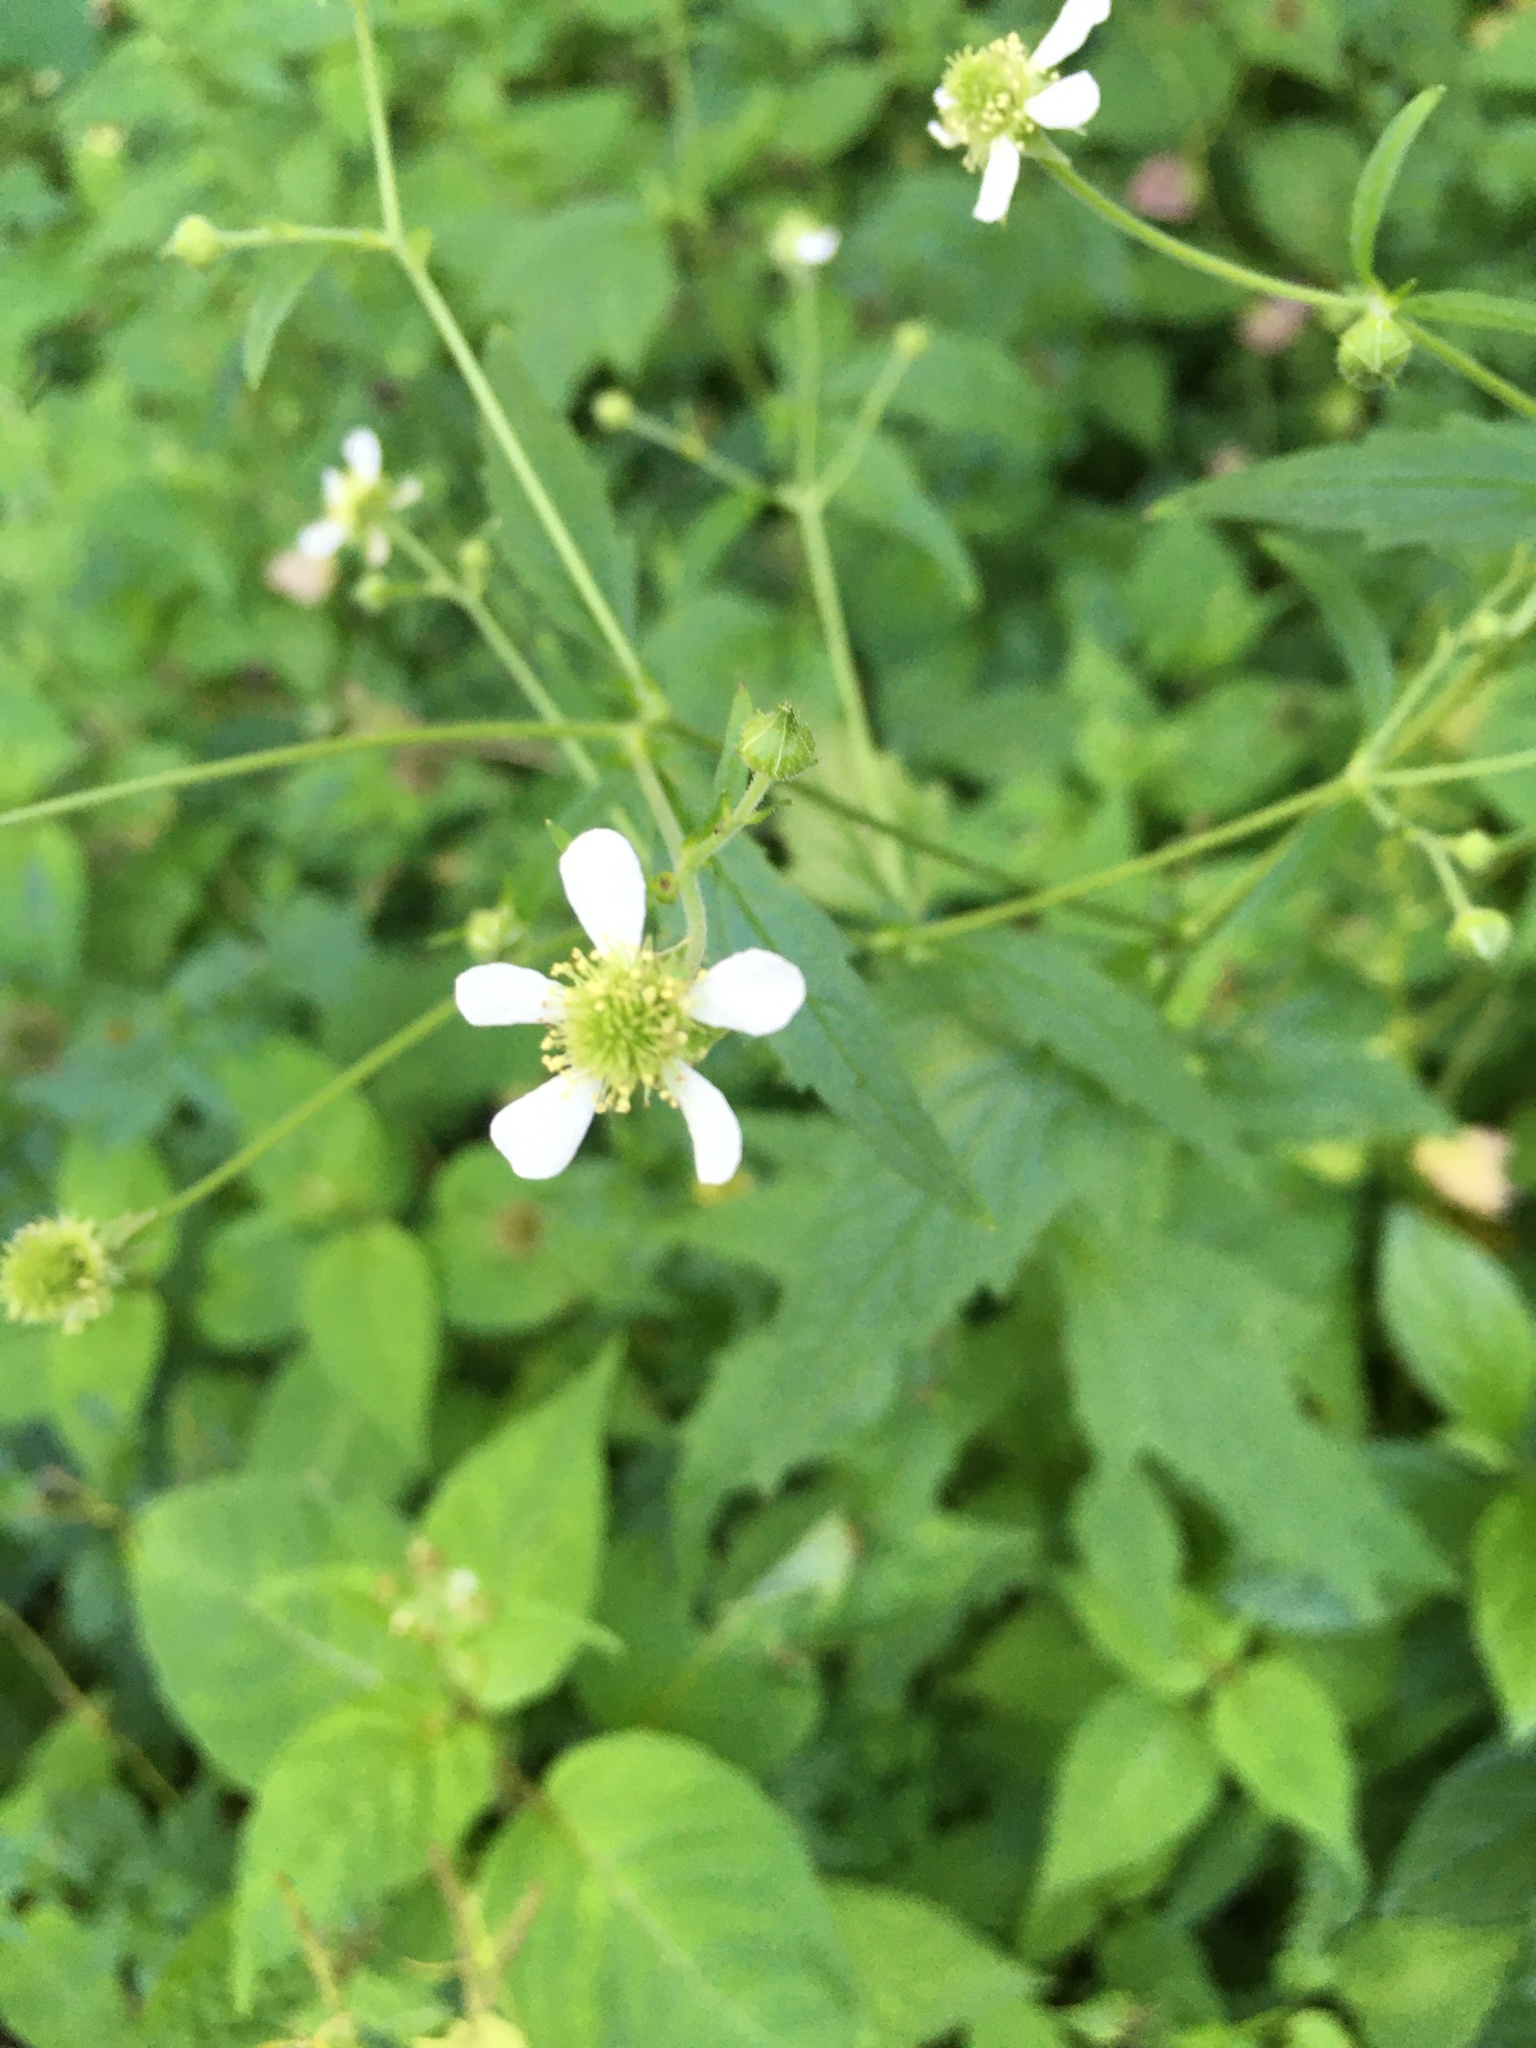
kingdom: Plantae
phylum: Tracheophyta
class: Magnoliopsida
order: Rosales
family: Rosaceae
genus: Geum
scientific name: Geum canadense
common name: White avens
